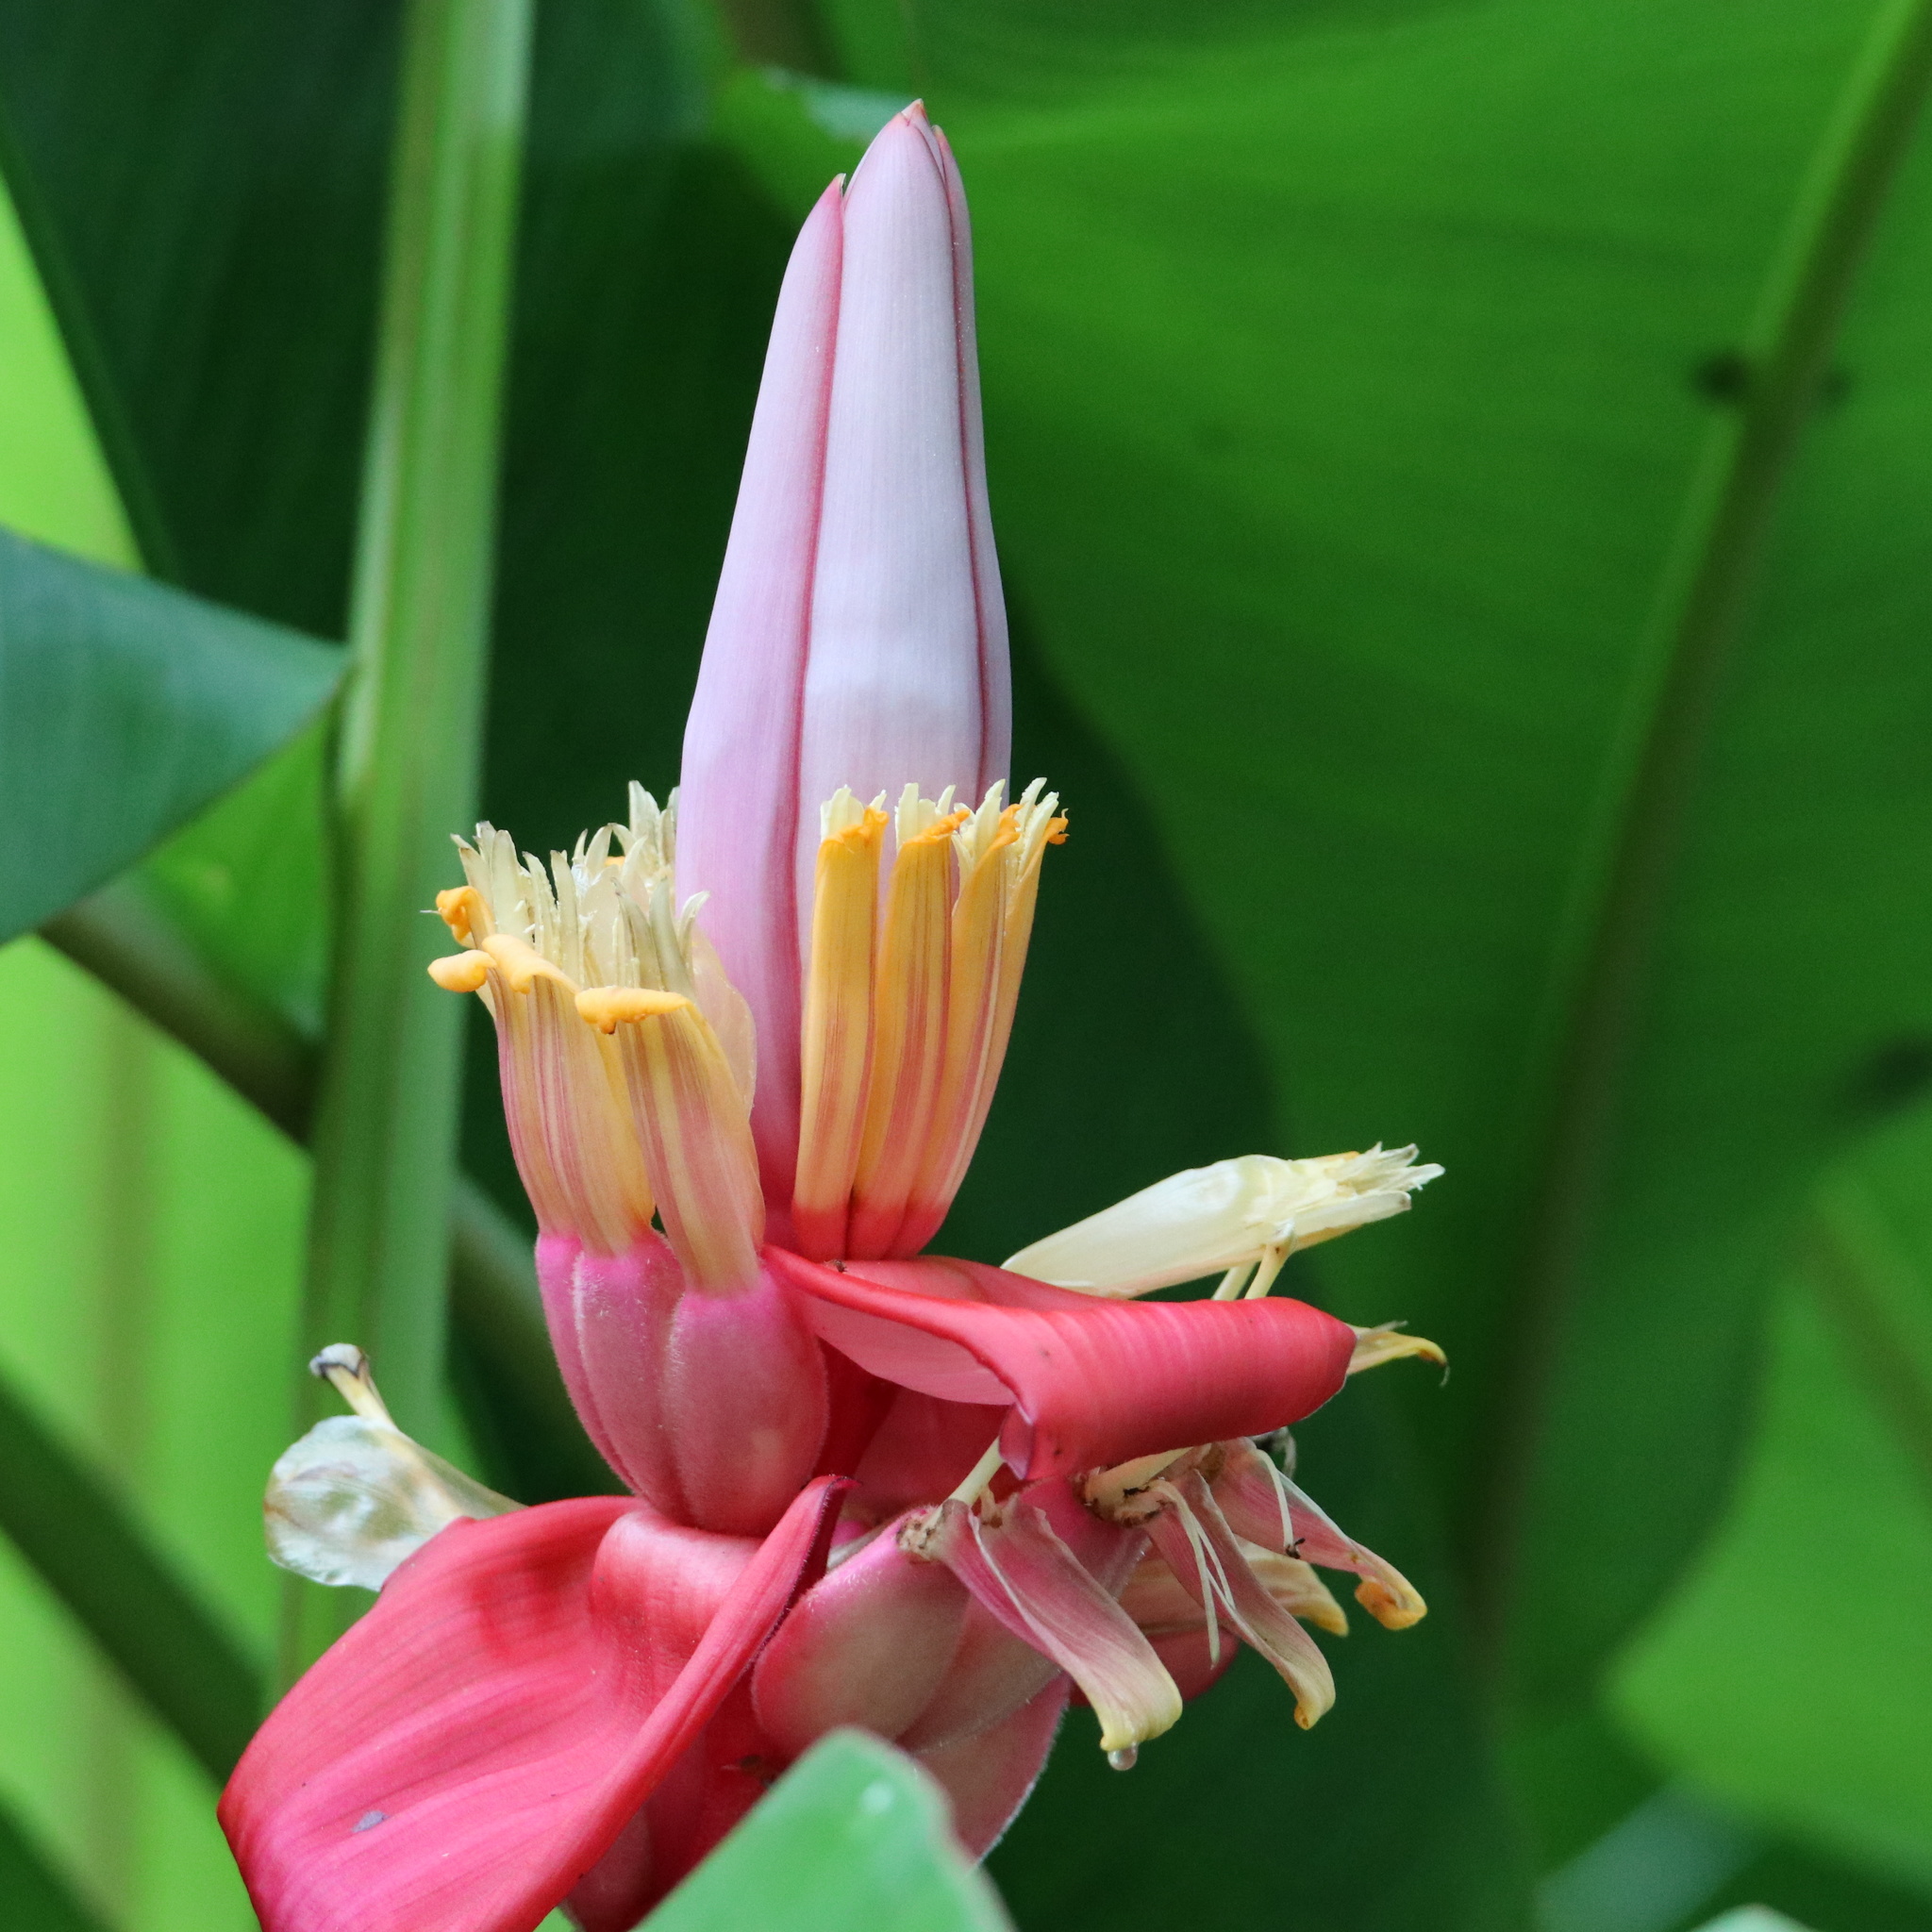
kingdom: Plantae
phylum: Tracheophyta
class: Liliopsida
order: Zingiberales
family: Musaceae
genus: Musa
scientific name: Musa velutina
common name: Pink velvet banana
